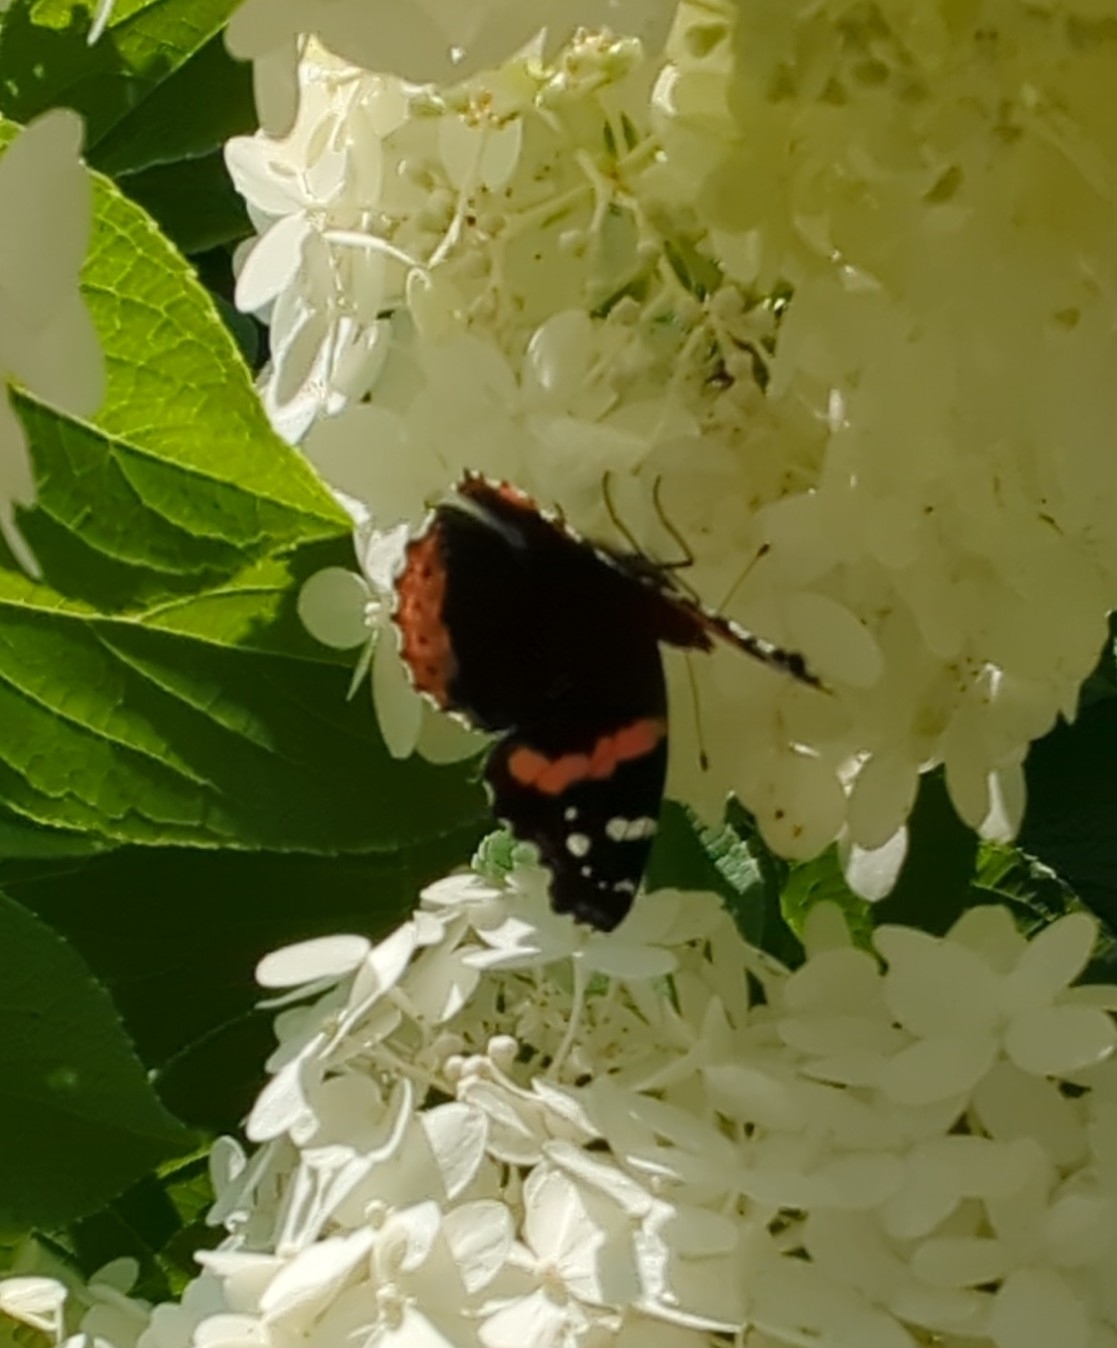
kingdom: Animalia
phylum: Arthropoda
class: Insecta
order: Lepidoptera
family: Nymphalidae
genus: Vanessa
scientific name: Vanessa atalanta
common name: Red admiral
